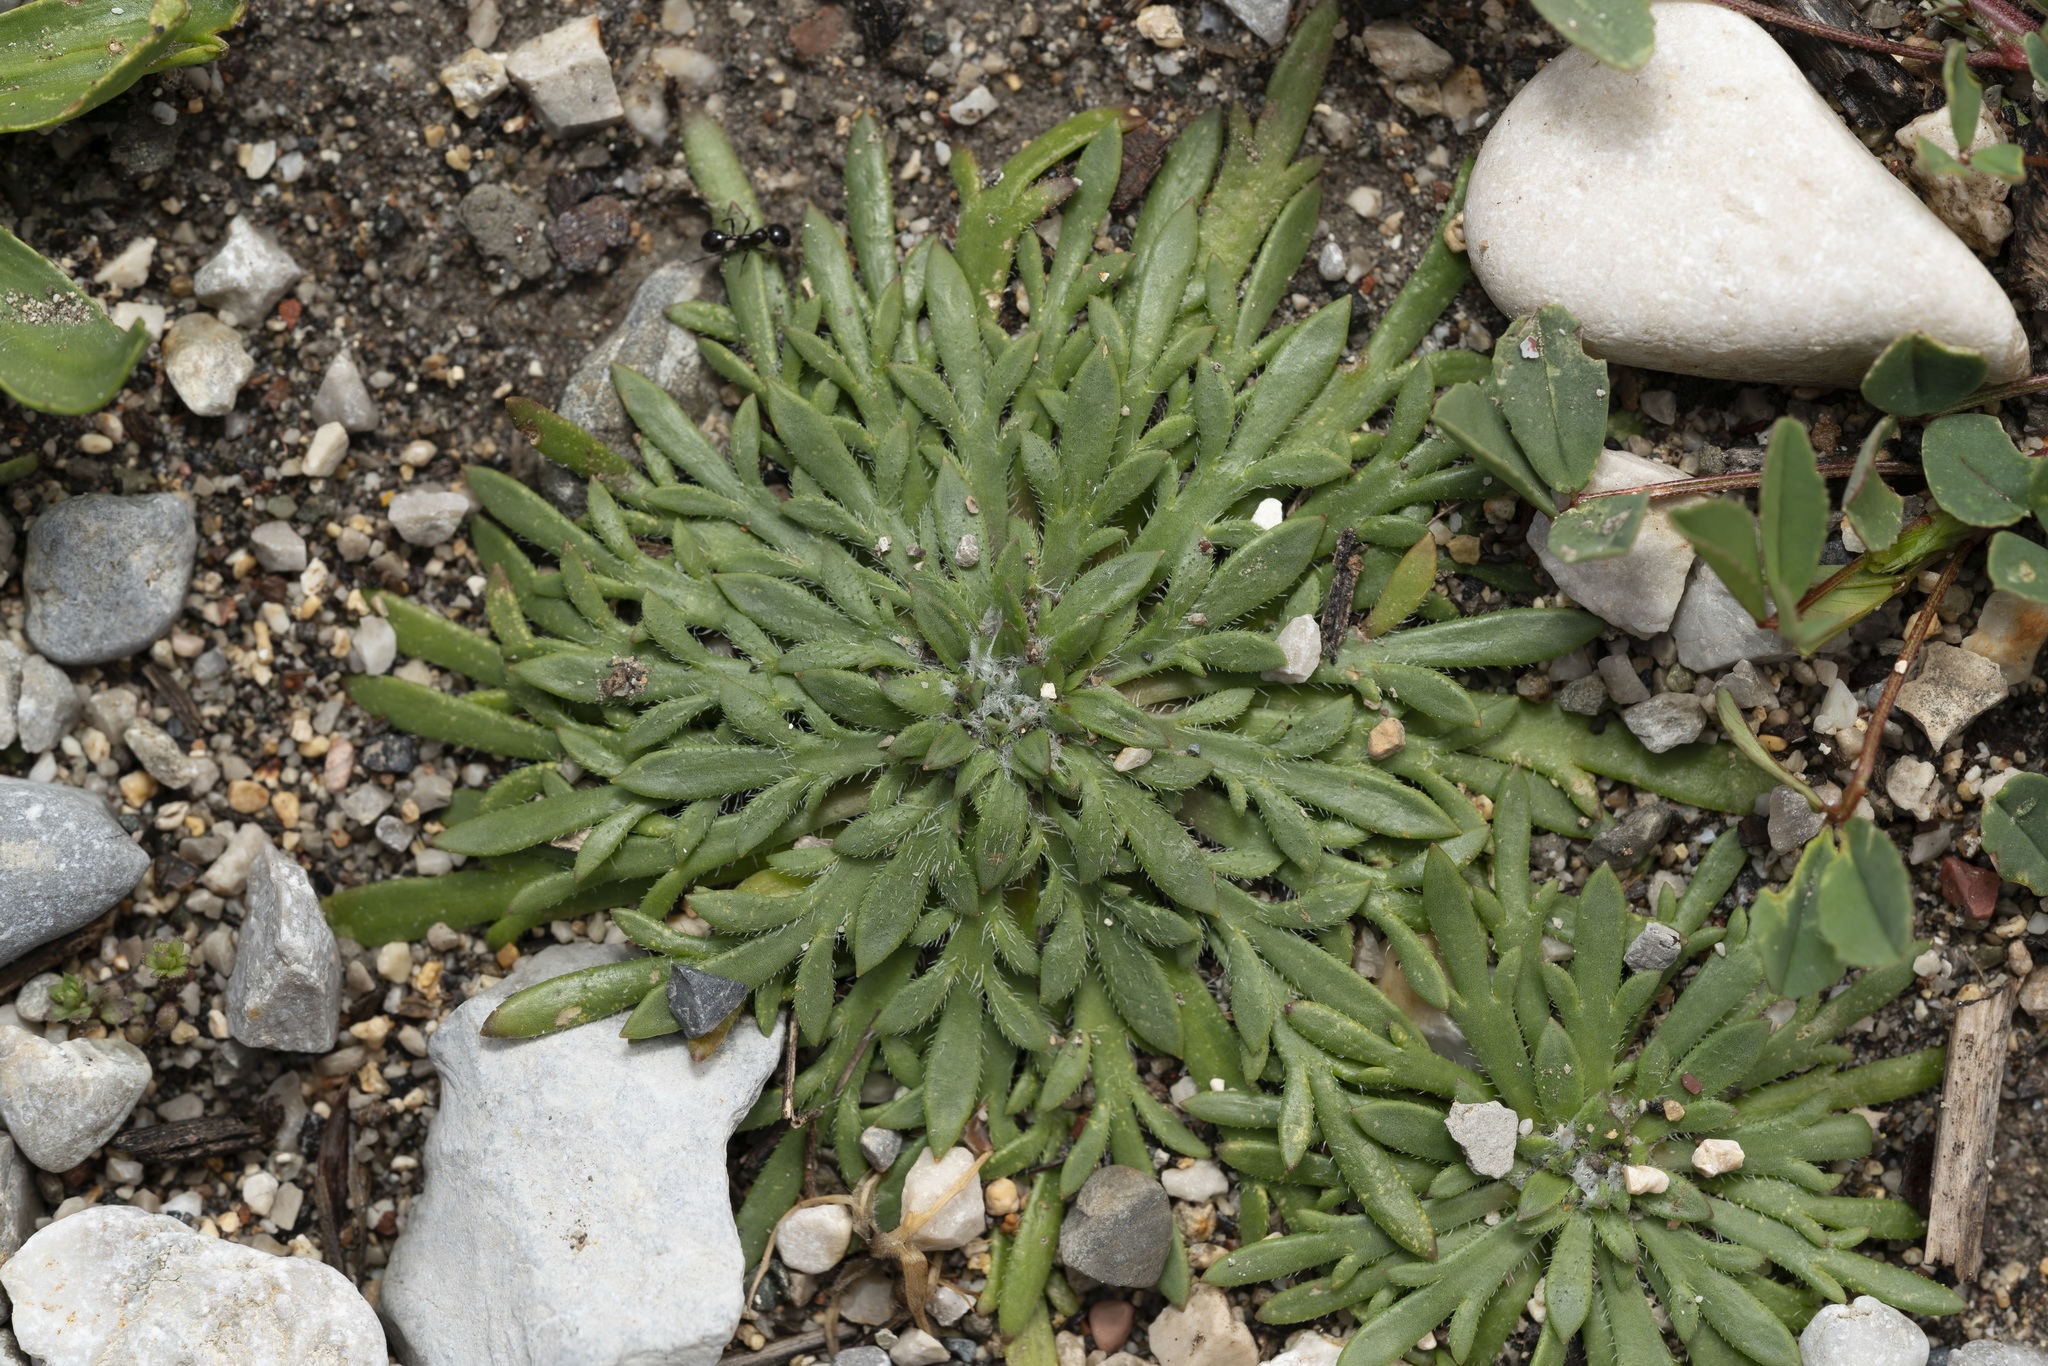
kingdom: Plantae
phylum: Tracheophyta
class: Magnoliopsida
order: Lamiales
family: Plantaginaceae
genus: Plantago
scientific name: Plantago weldenii
